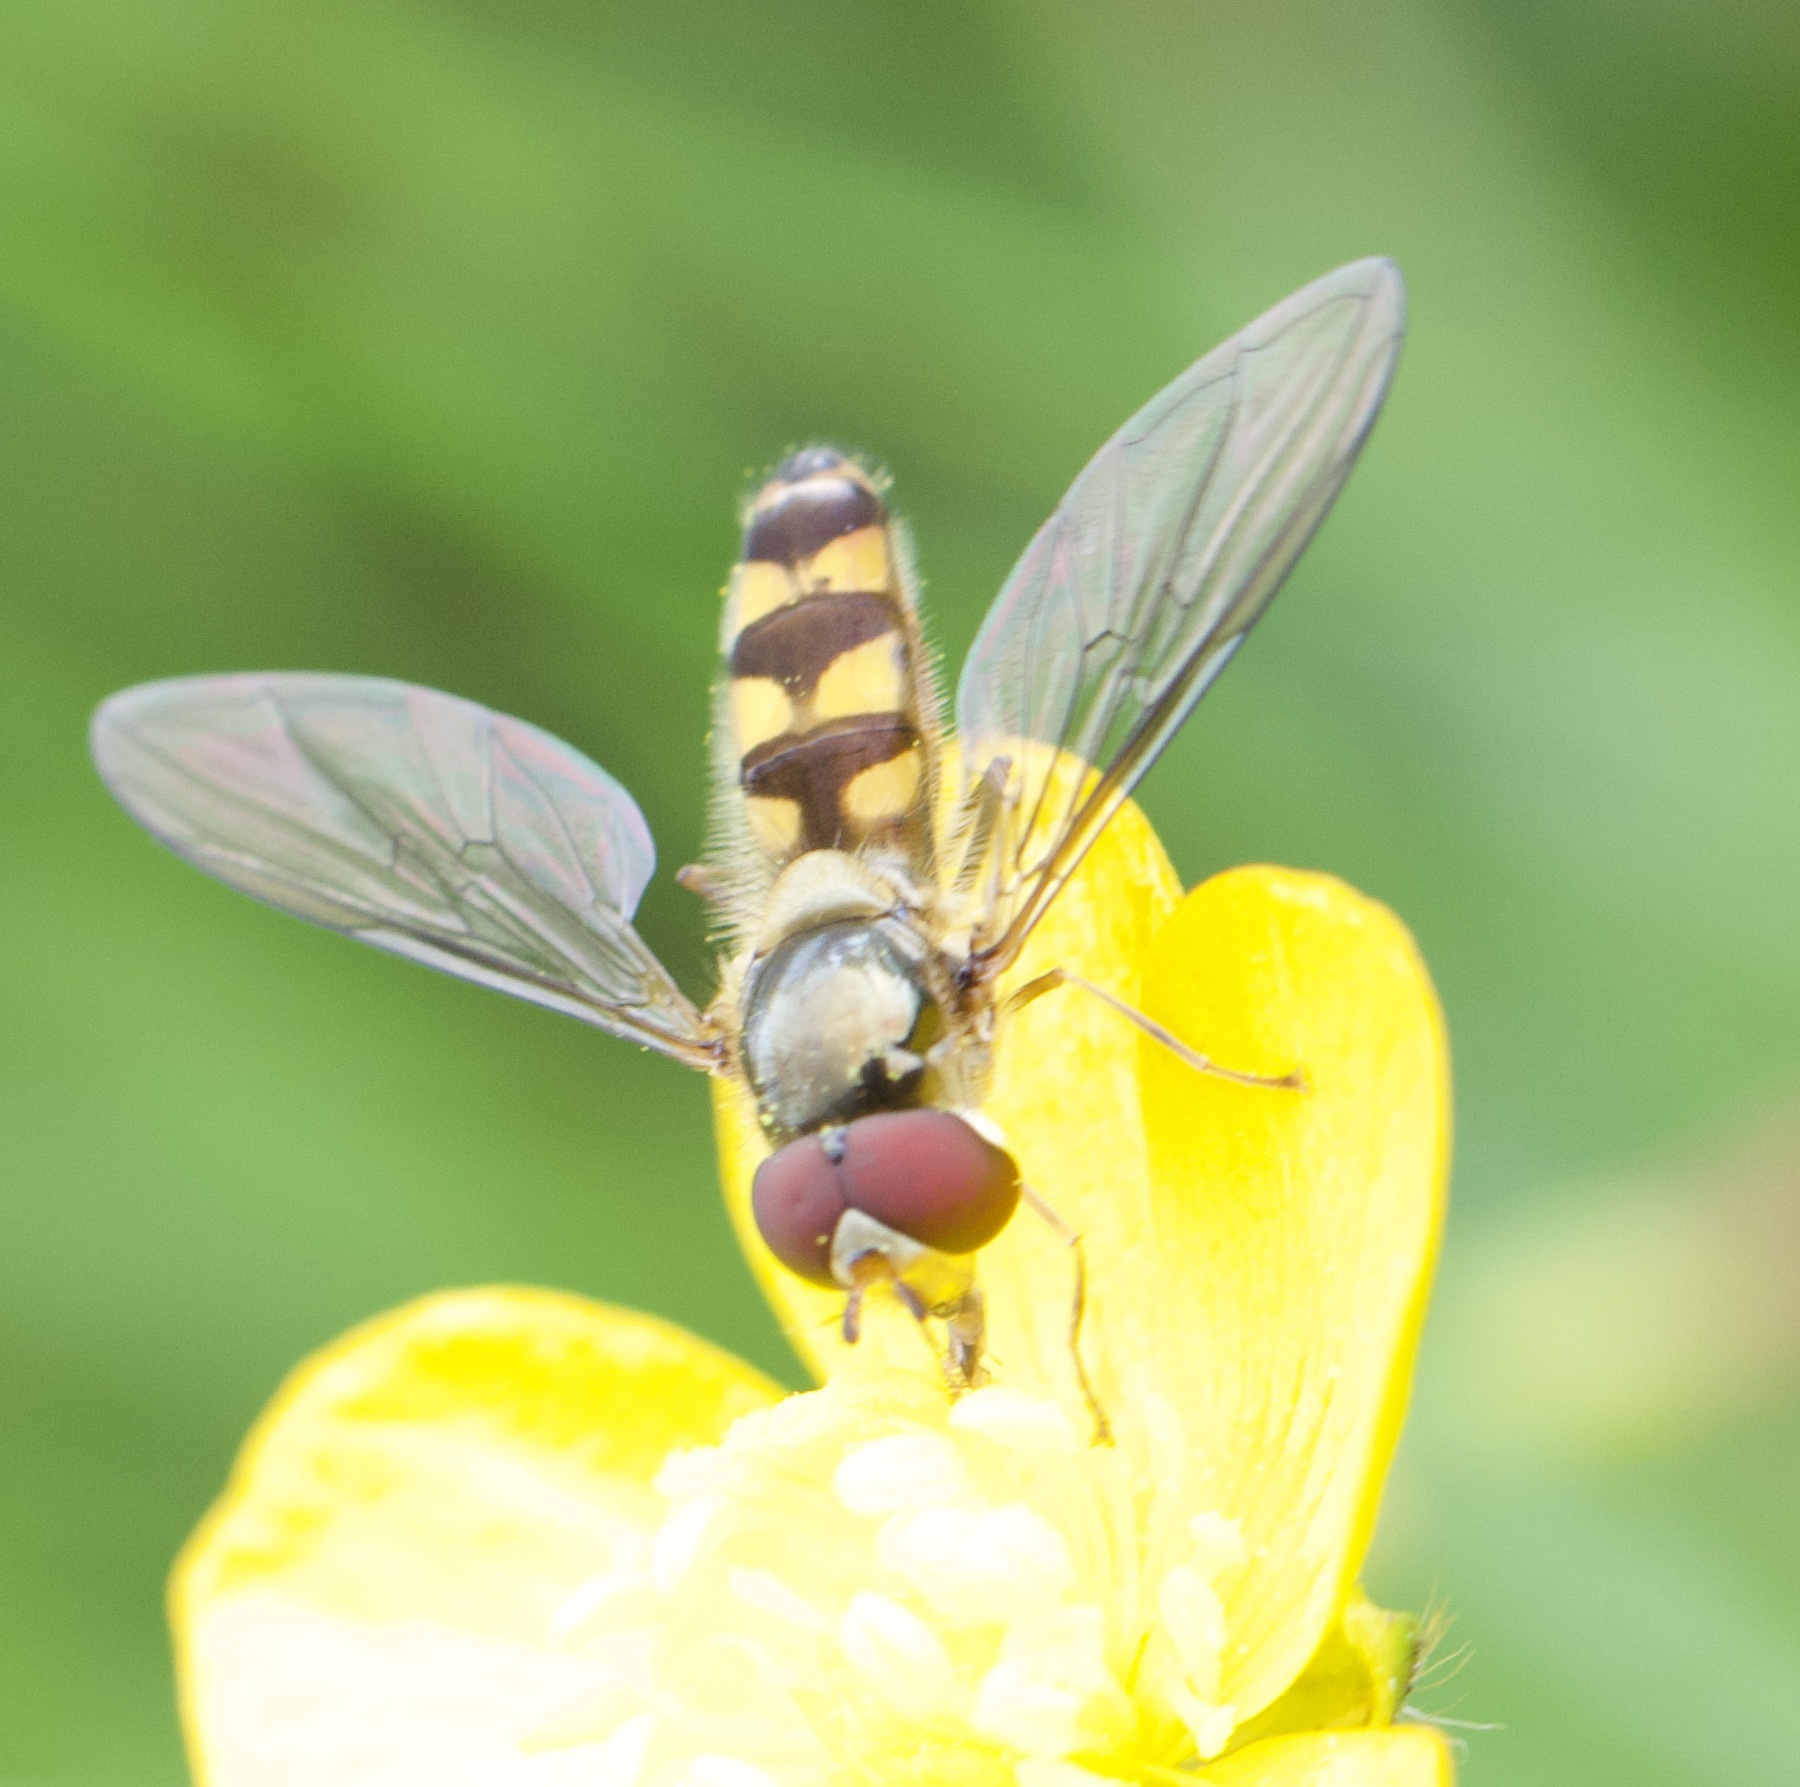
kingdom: Animalia
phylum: Arthropoda
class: Insecta
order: Diptera
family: Syrphidae
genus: Meliscaeva
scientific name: Meliscaeva auricollis
